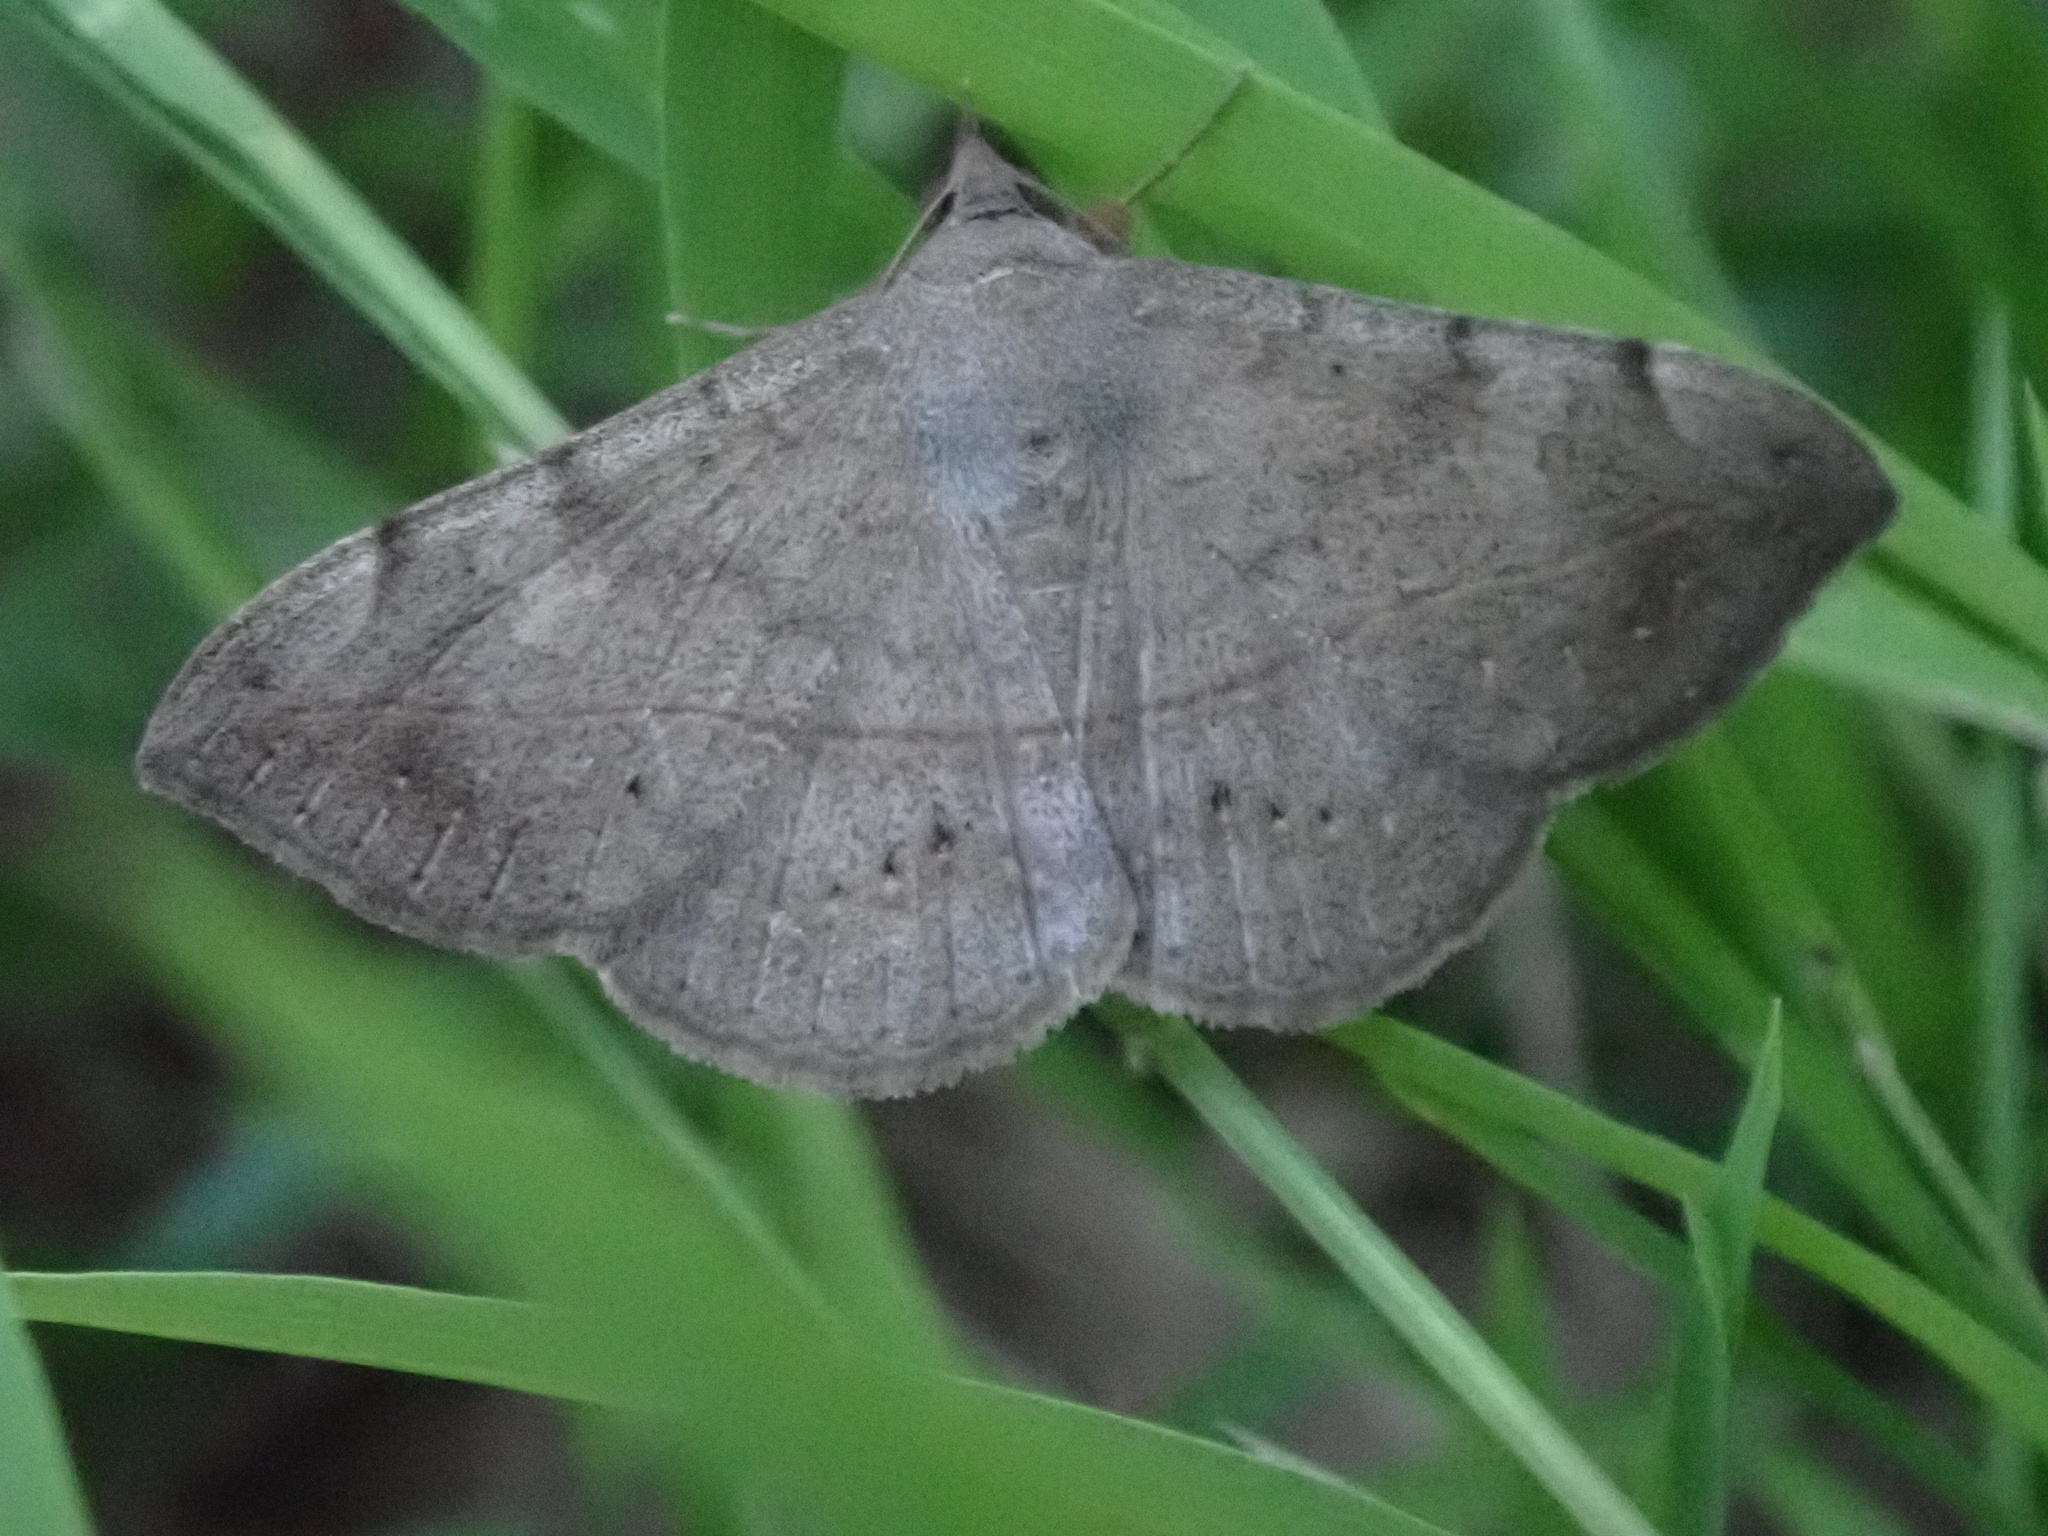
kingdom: Animalia
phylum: Arthropoda
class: Insecta
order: Lepidoptera
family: Erebidae
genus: Anticarsia
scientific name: Anticarsia gemmatalis
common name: Cutworm moth
